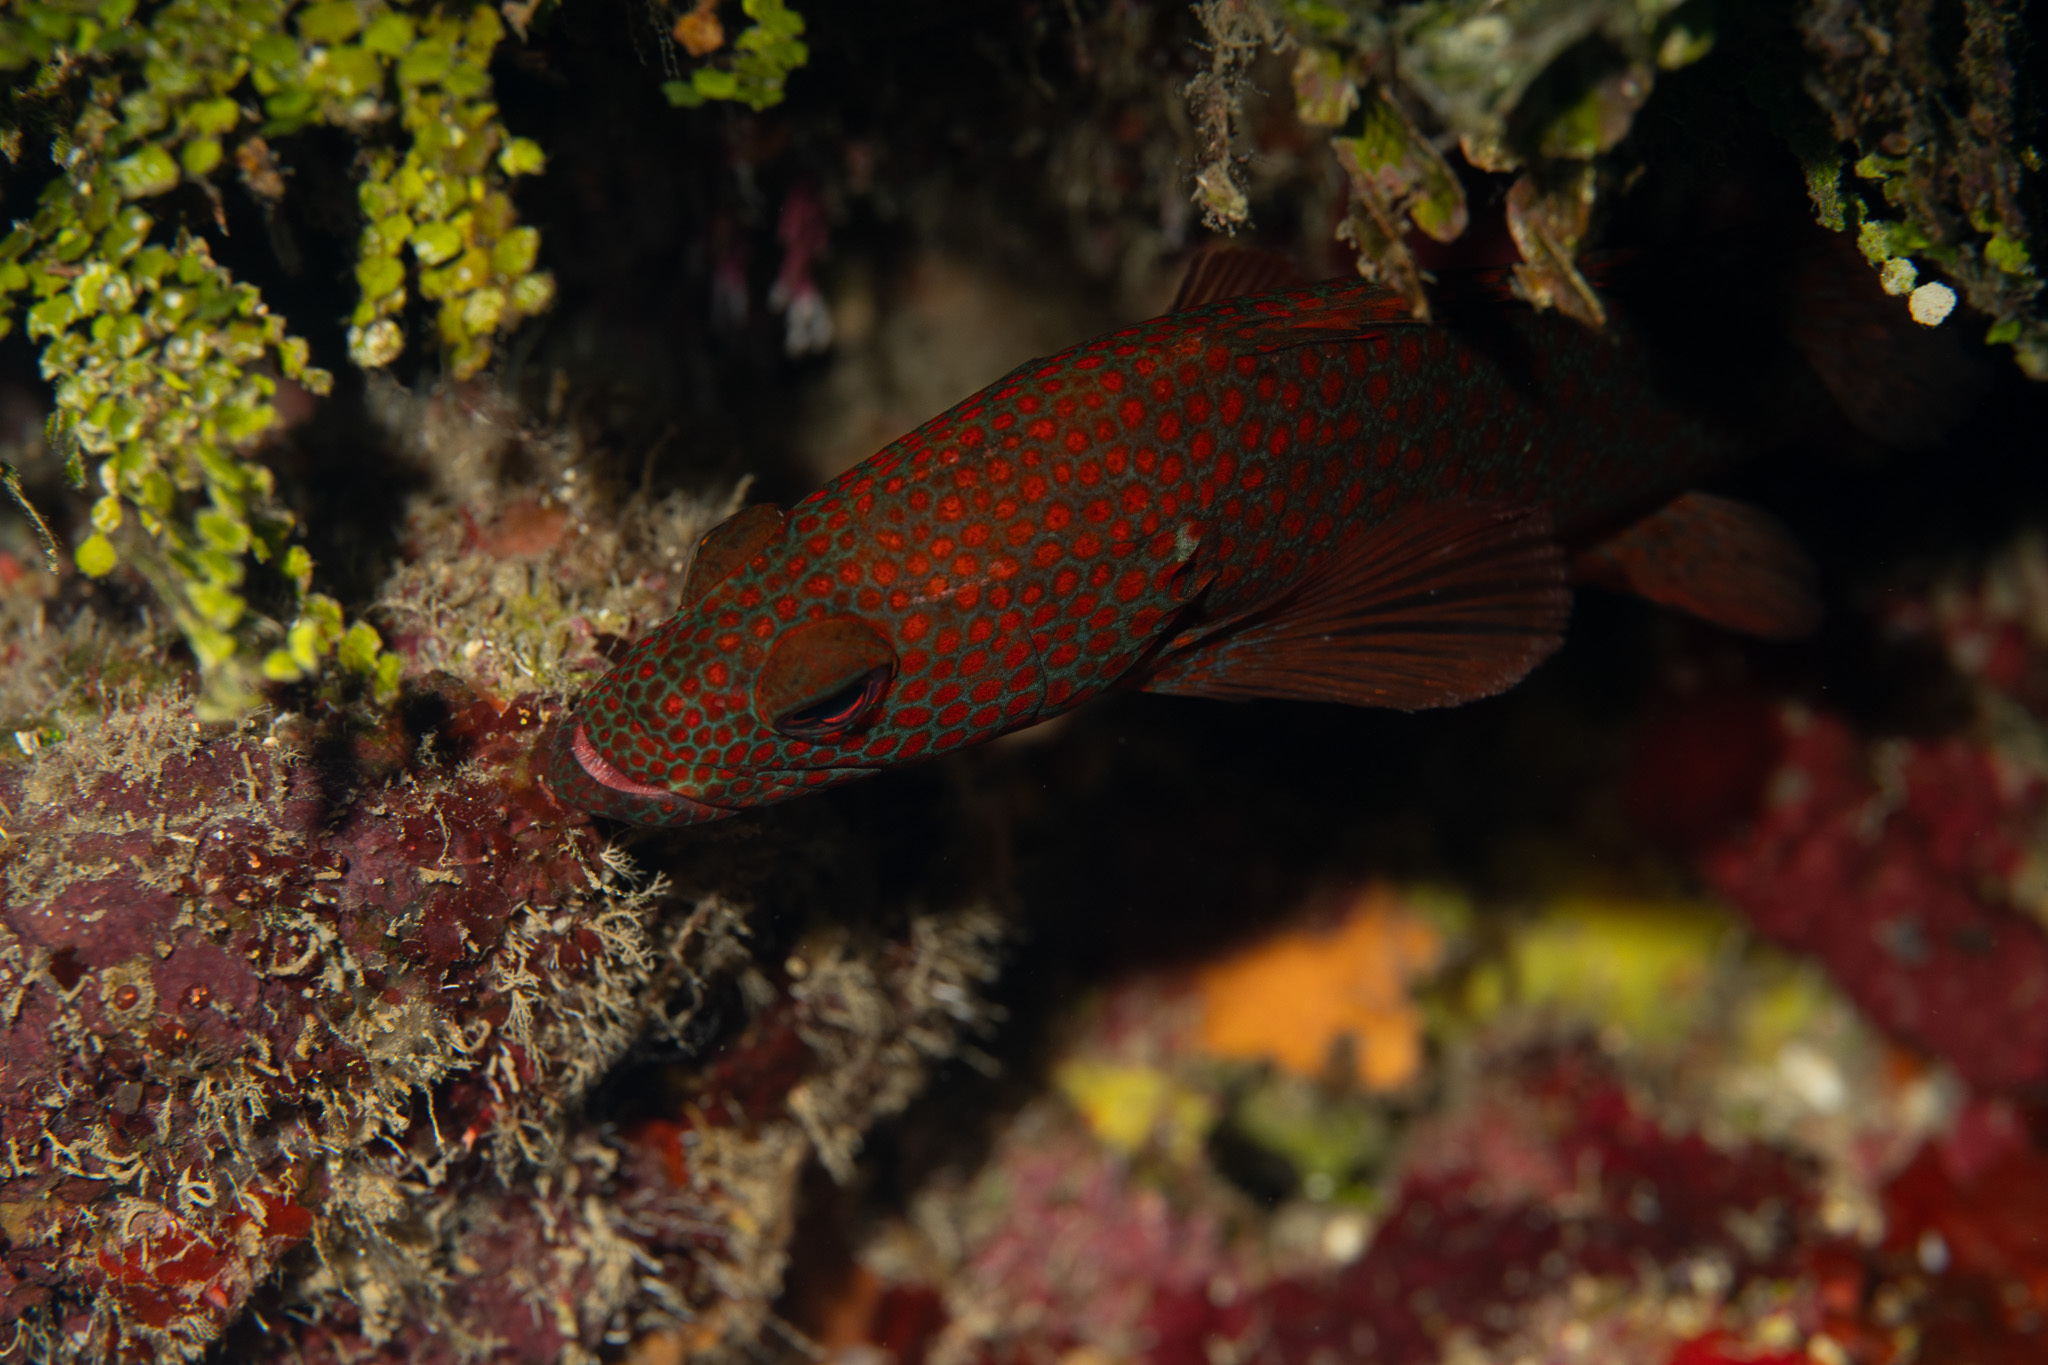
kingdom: Animalia
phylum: Chordata
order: Perciformes
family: Serranidae
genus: Cephalopholis
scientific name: Cephalopholis cruentata
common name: Graysby
